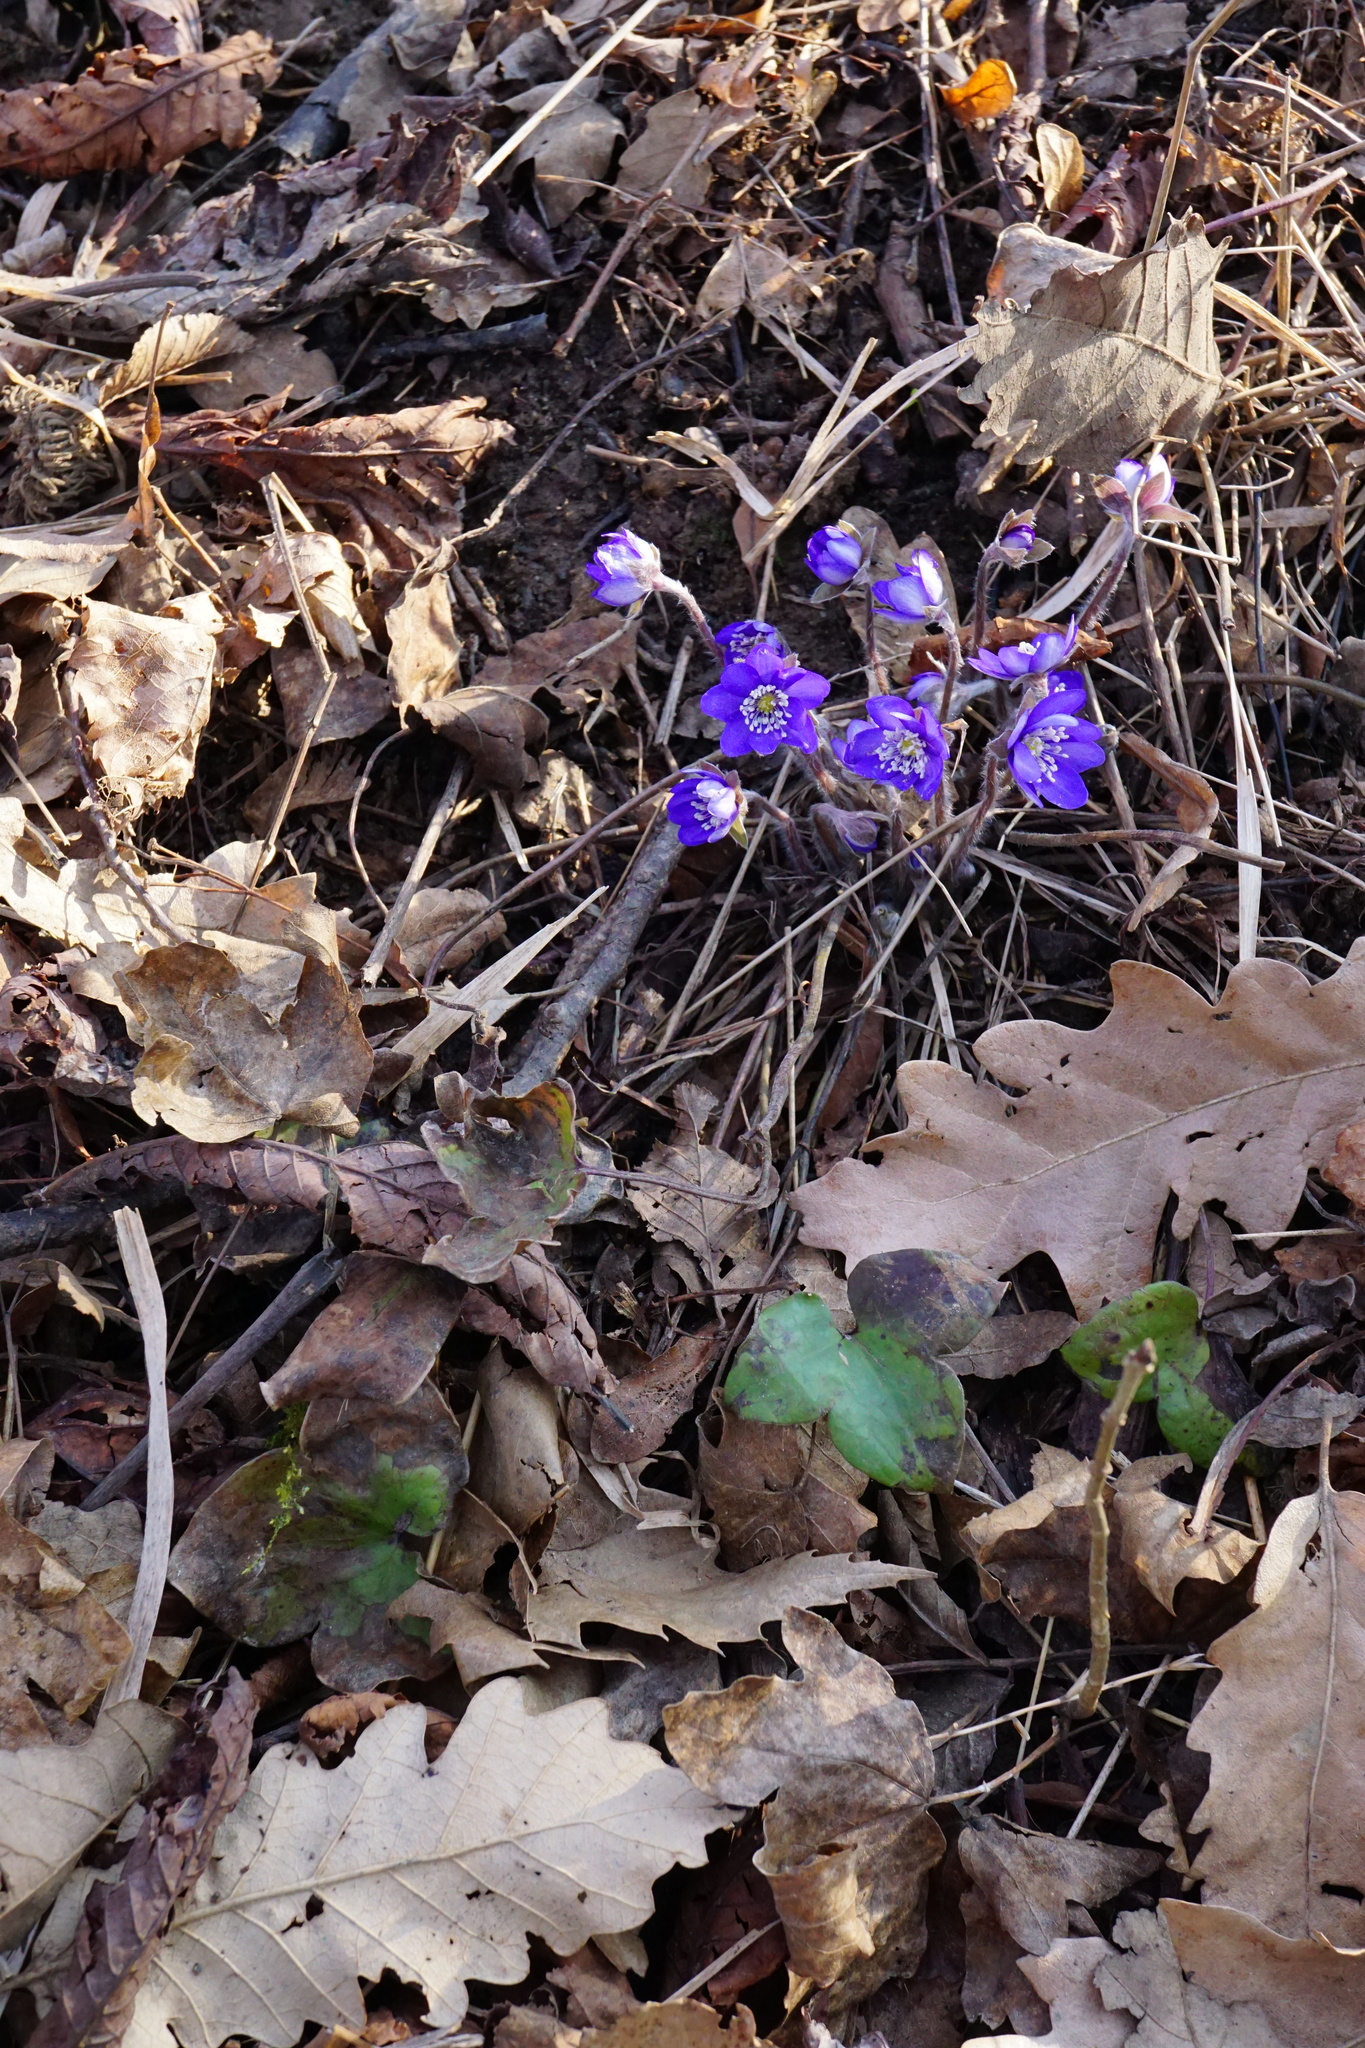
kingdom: Plantae
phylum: Tracheophyta
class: Magnoliopsida
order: Ranunculales
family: Ranunculaceae
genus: Hepatica
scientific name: Hepatica nobilis
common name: Liverleaf
